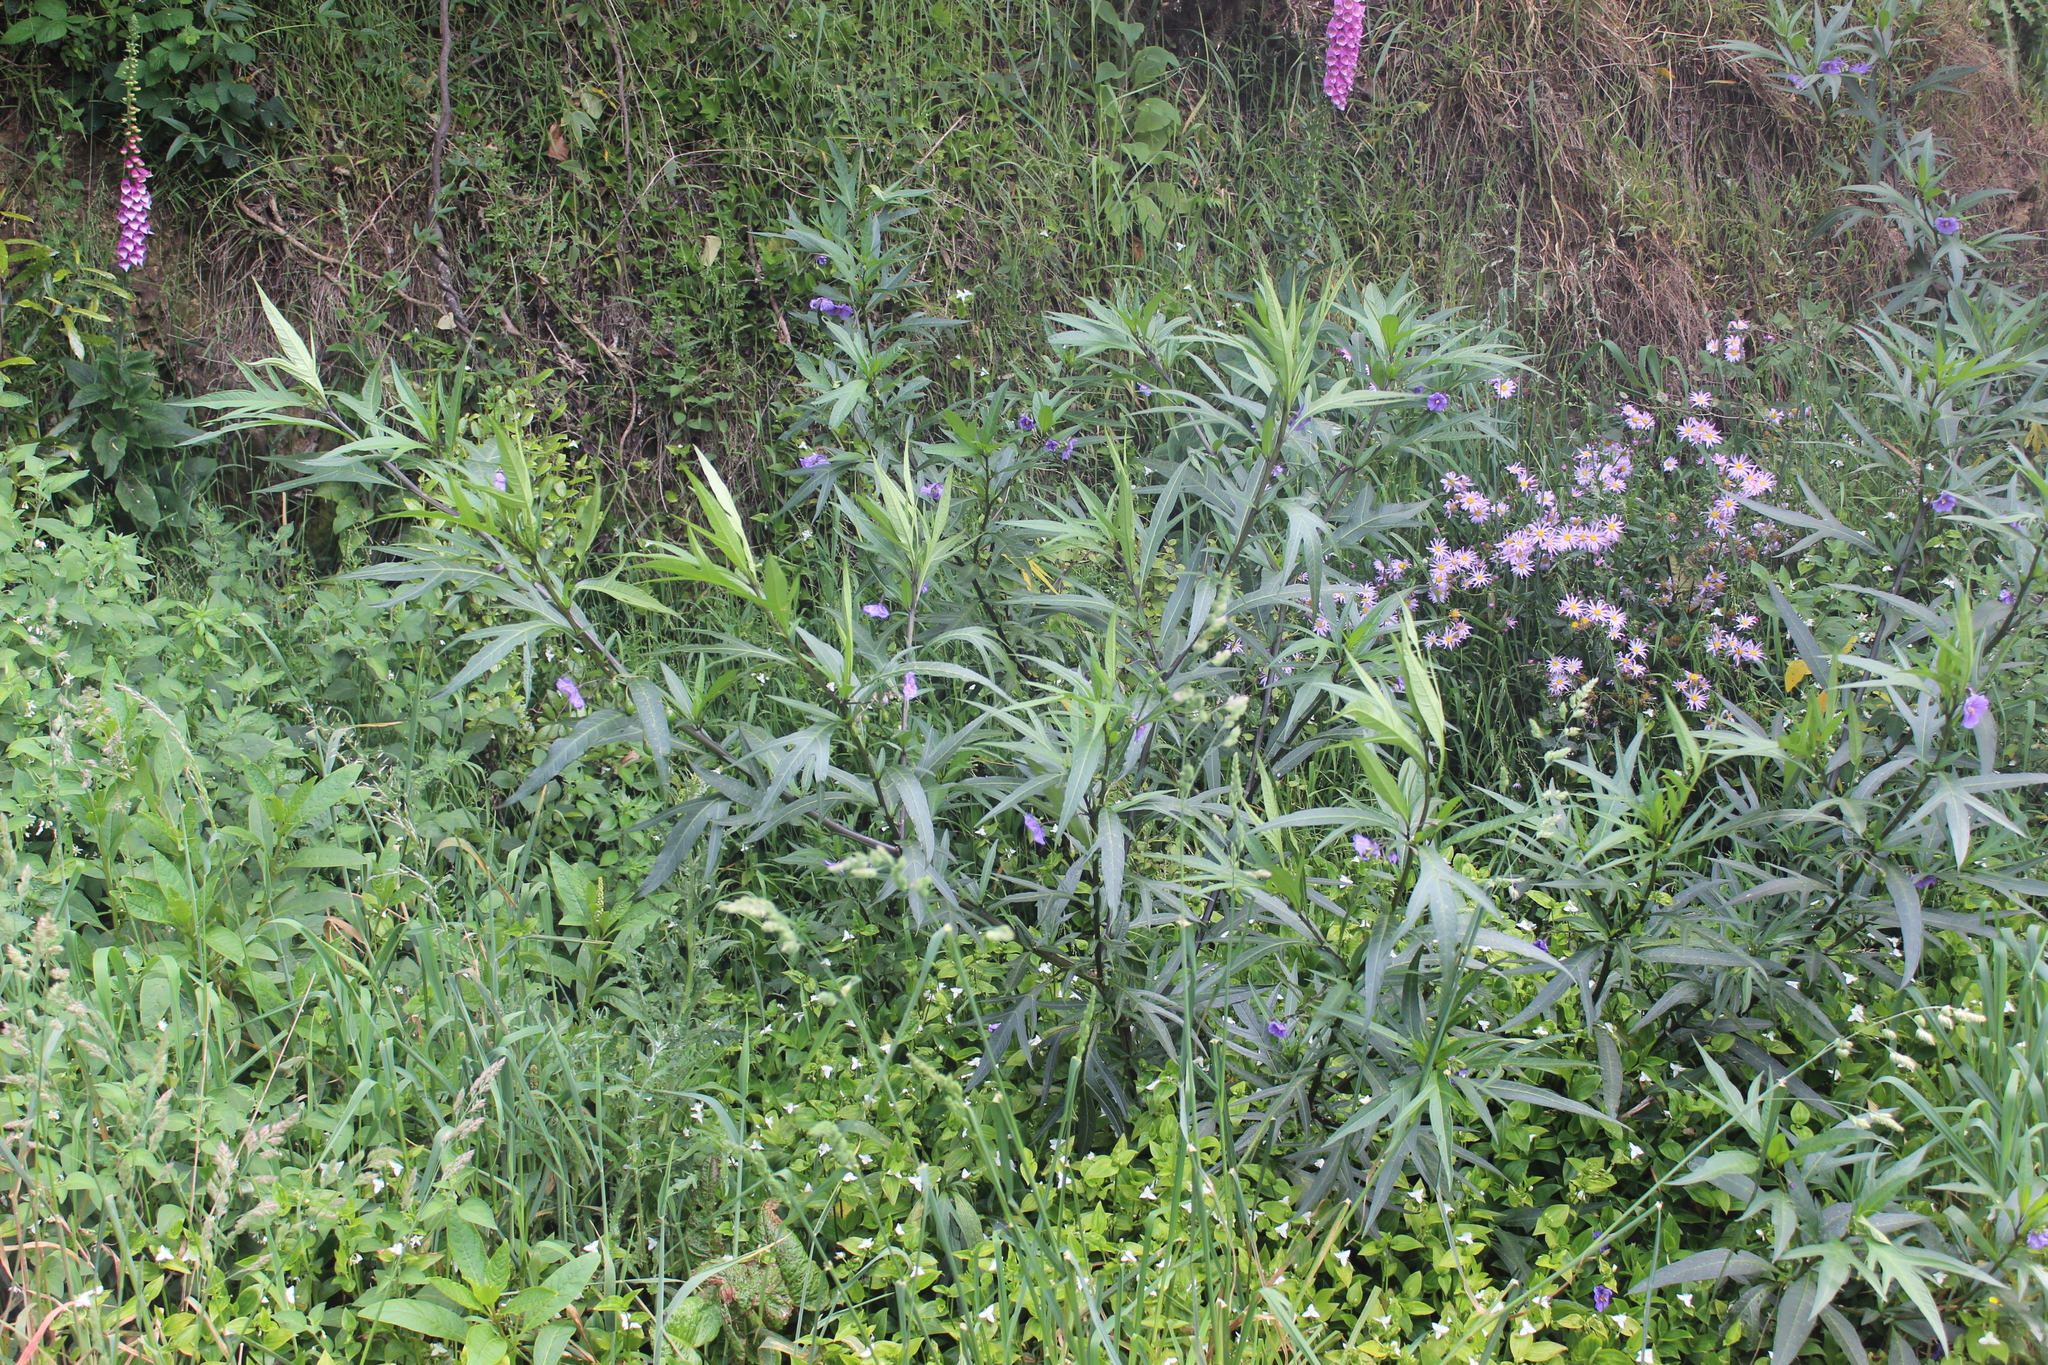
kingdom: Plantae
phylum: Tracheophyta
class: Magnoliopsida
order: Solanales
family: Solanaceae
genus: Solanum
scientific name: Solanum laciniatum
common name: Kangaroo-apple
